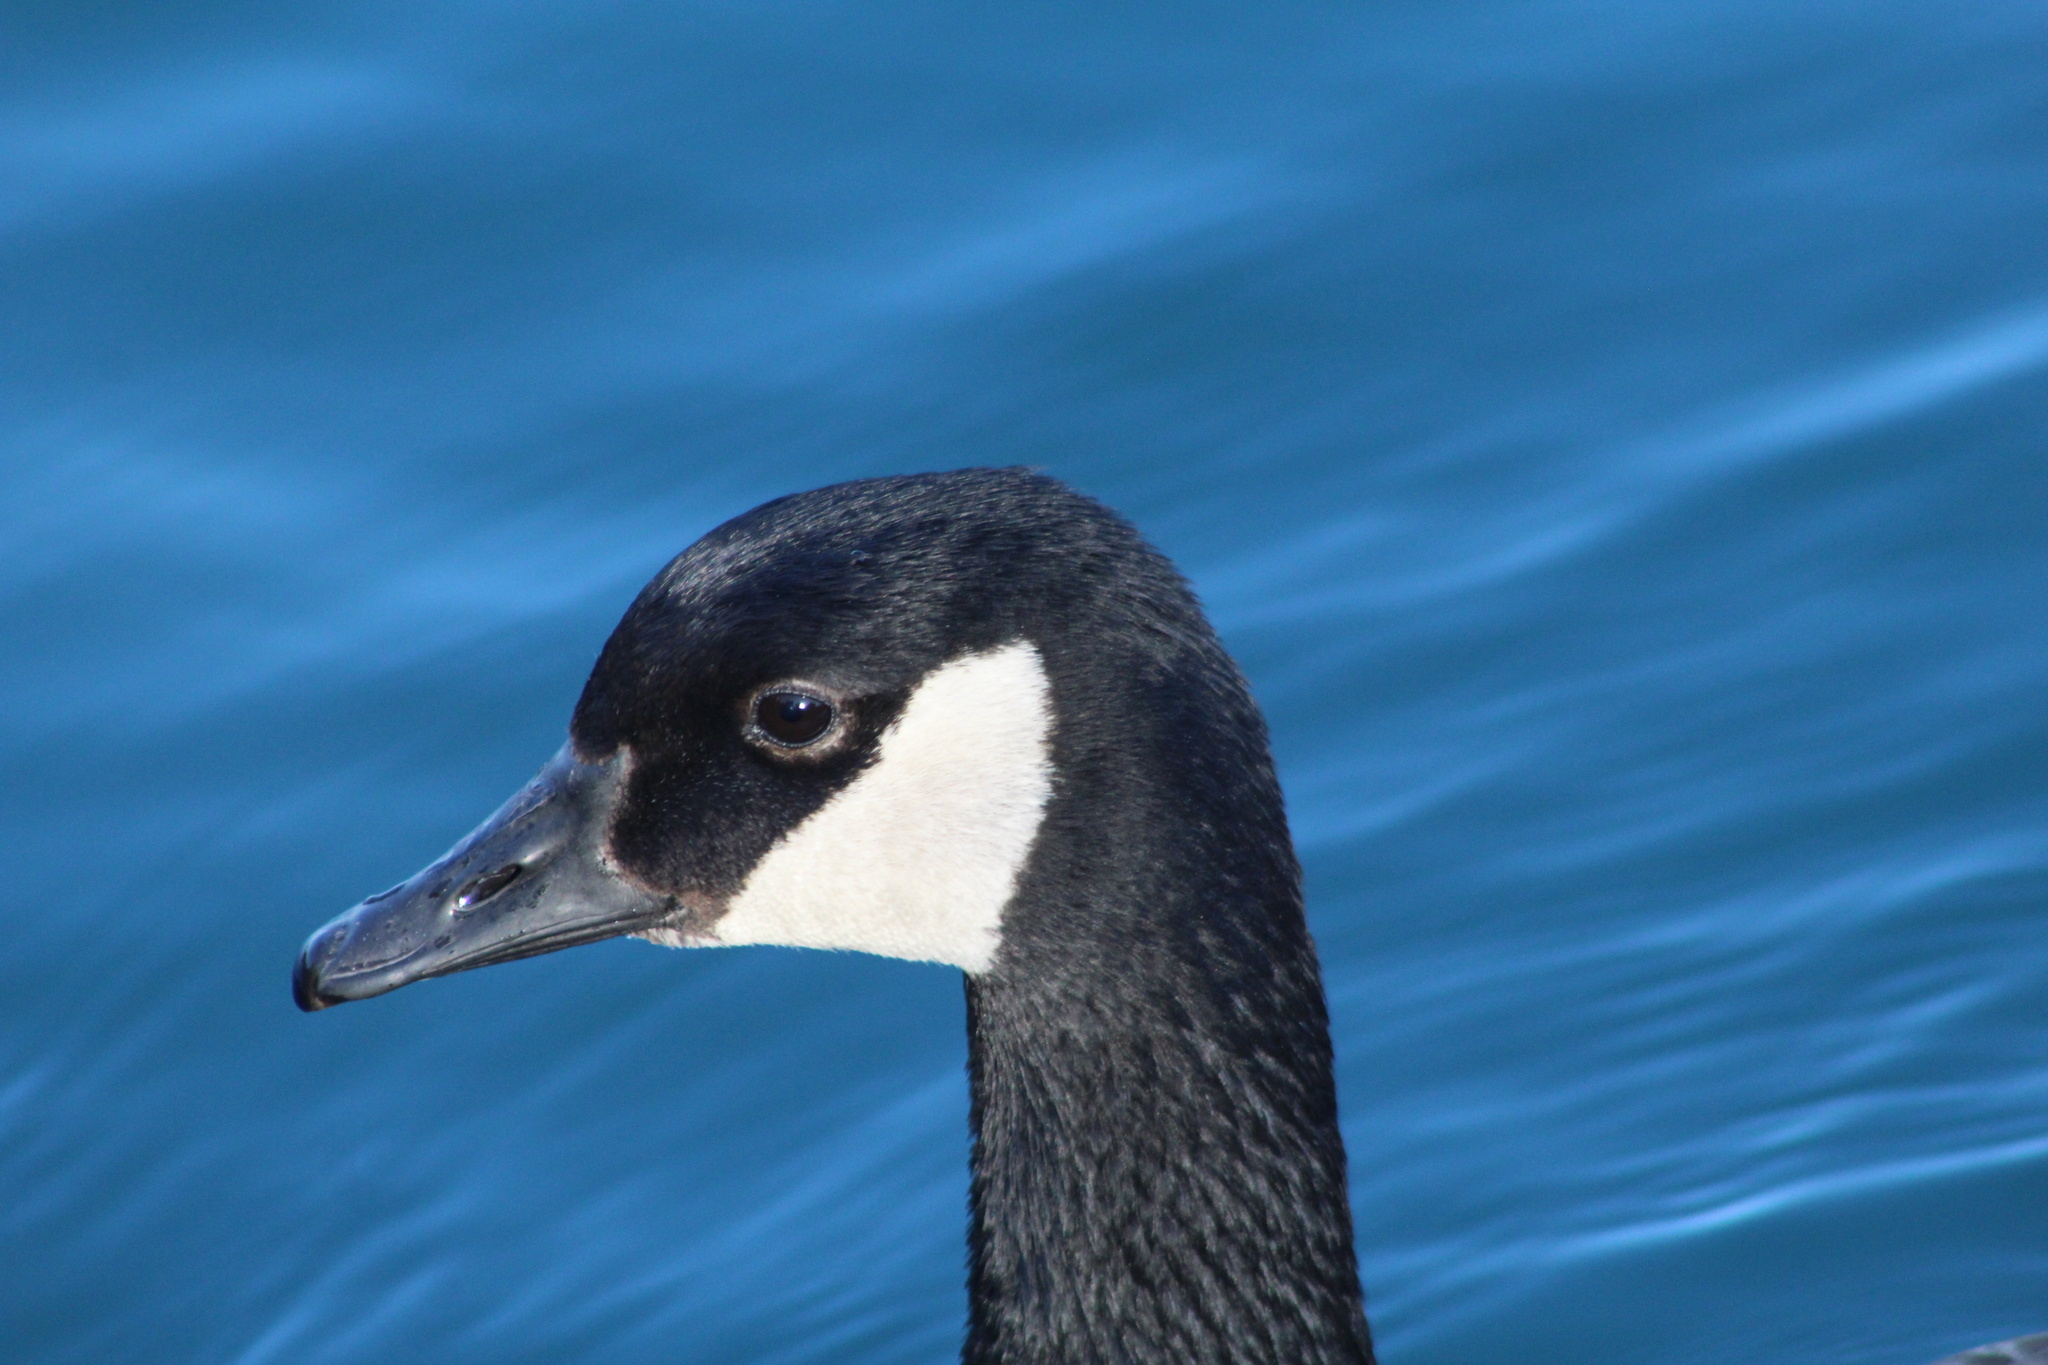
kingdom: Animalia
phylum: Chordata
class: Aves
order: Anseriformes
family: Anatidae
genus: Branta
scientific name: Branta canadensis
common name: Canada goose
